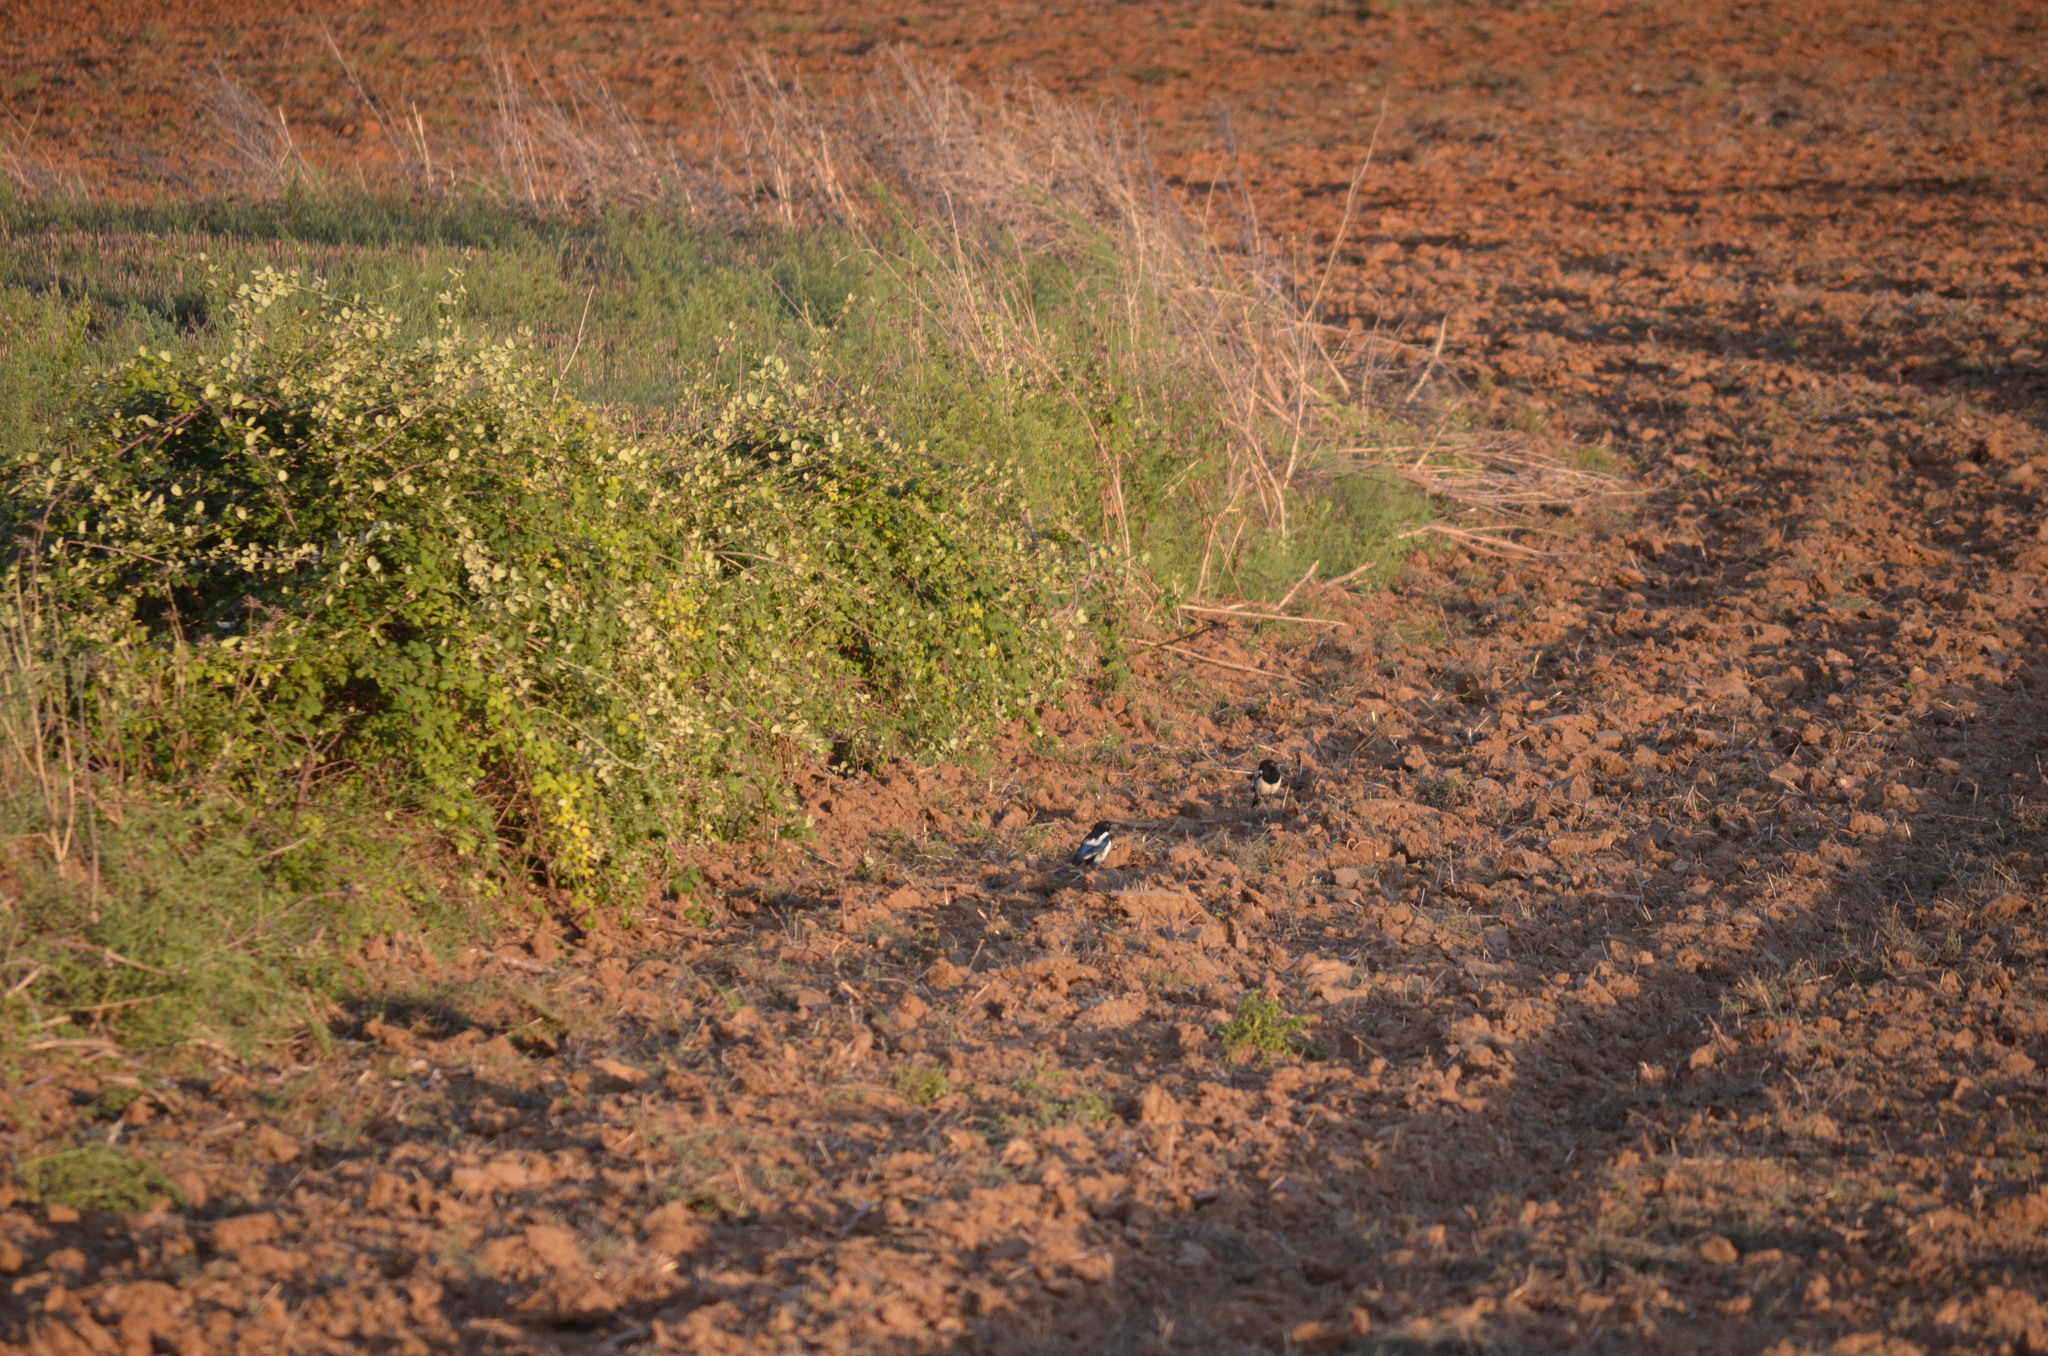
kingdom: Animalia
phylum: Chordata
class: Aves
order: Passeriformes
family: Corvidae
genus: Pica
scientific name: Pica pica
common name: Eurasian magpie
